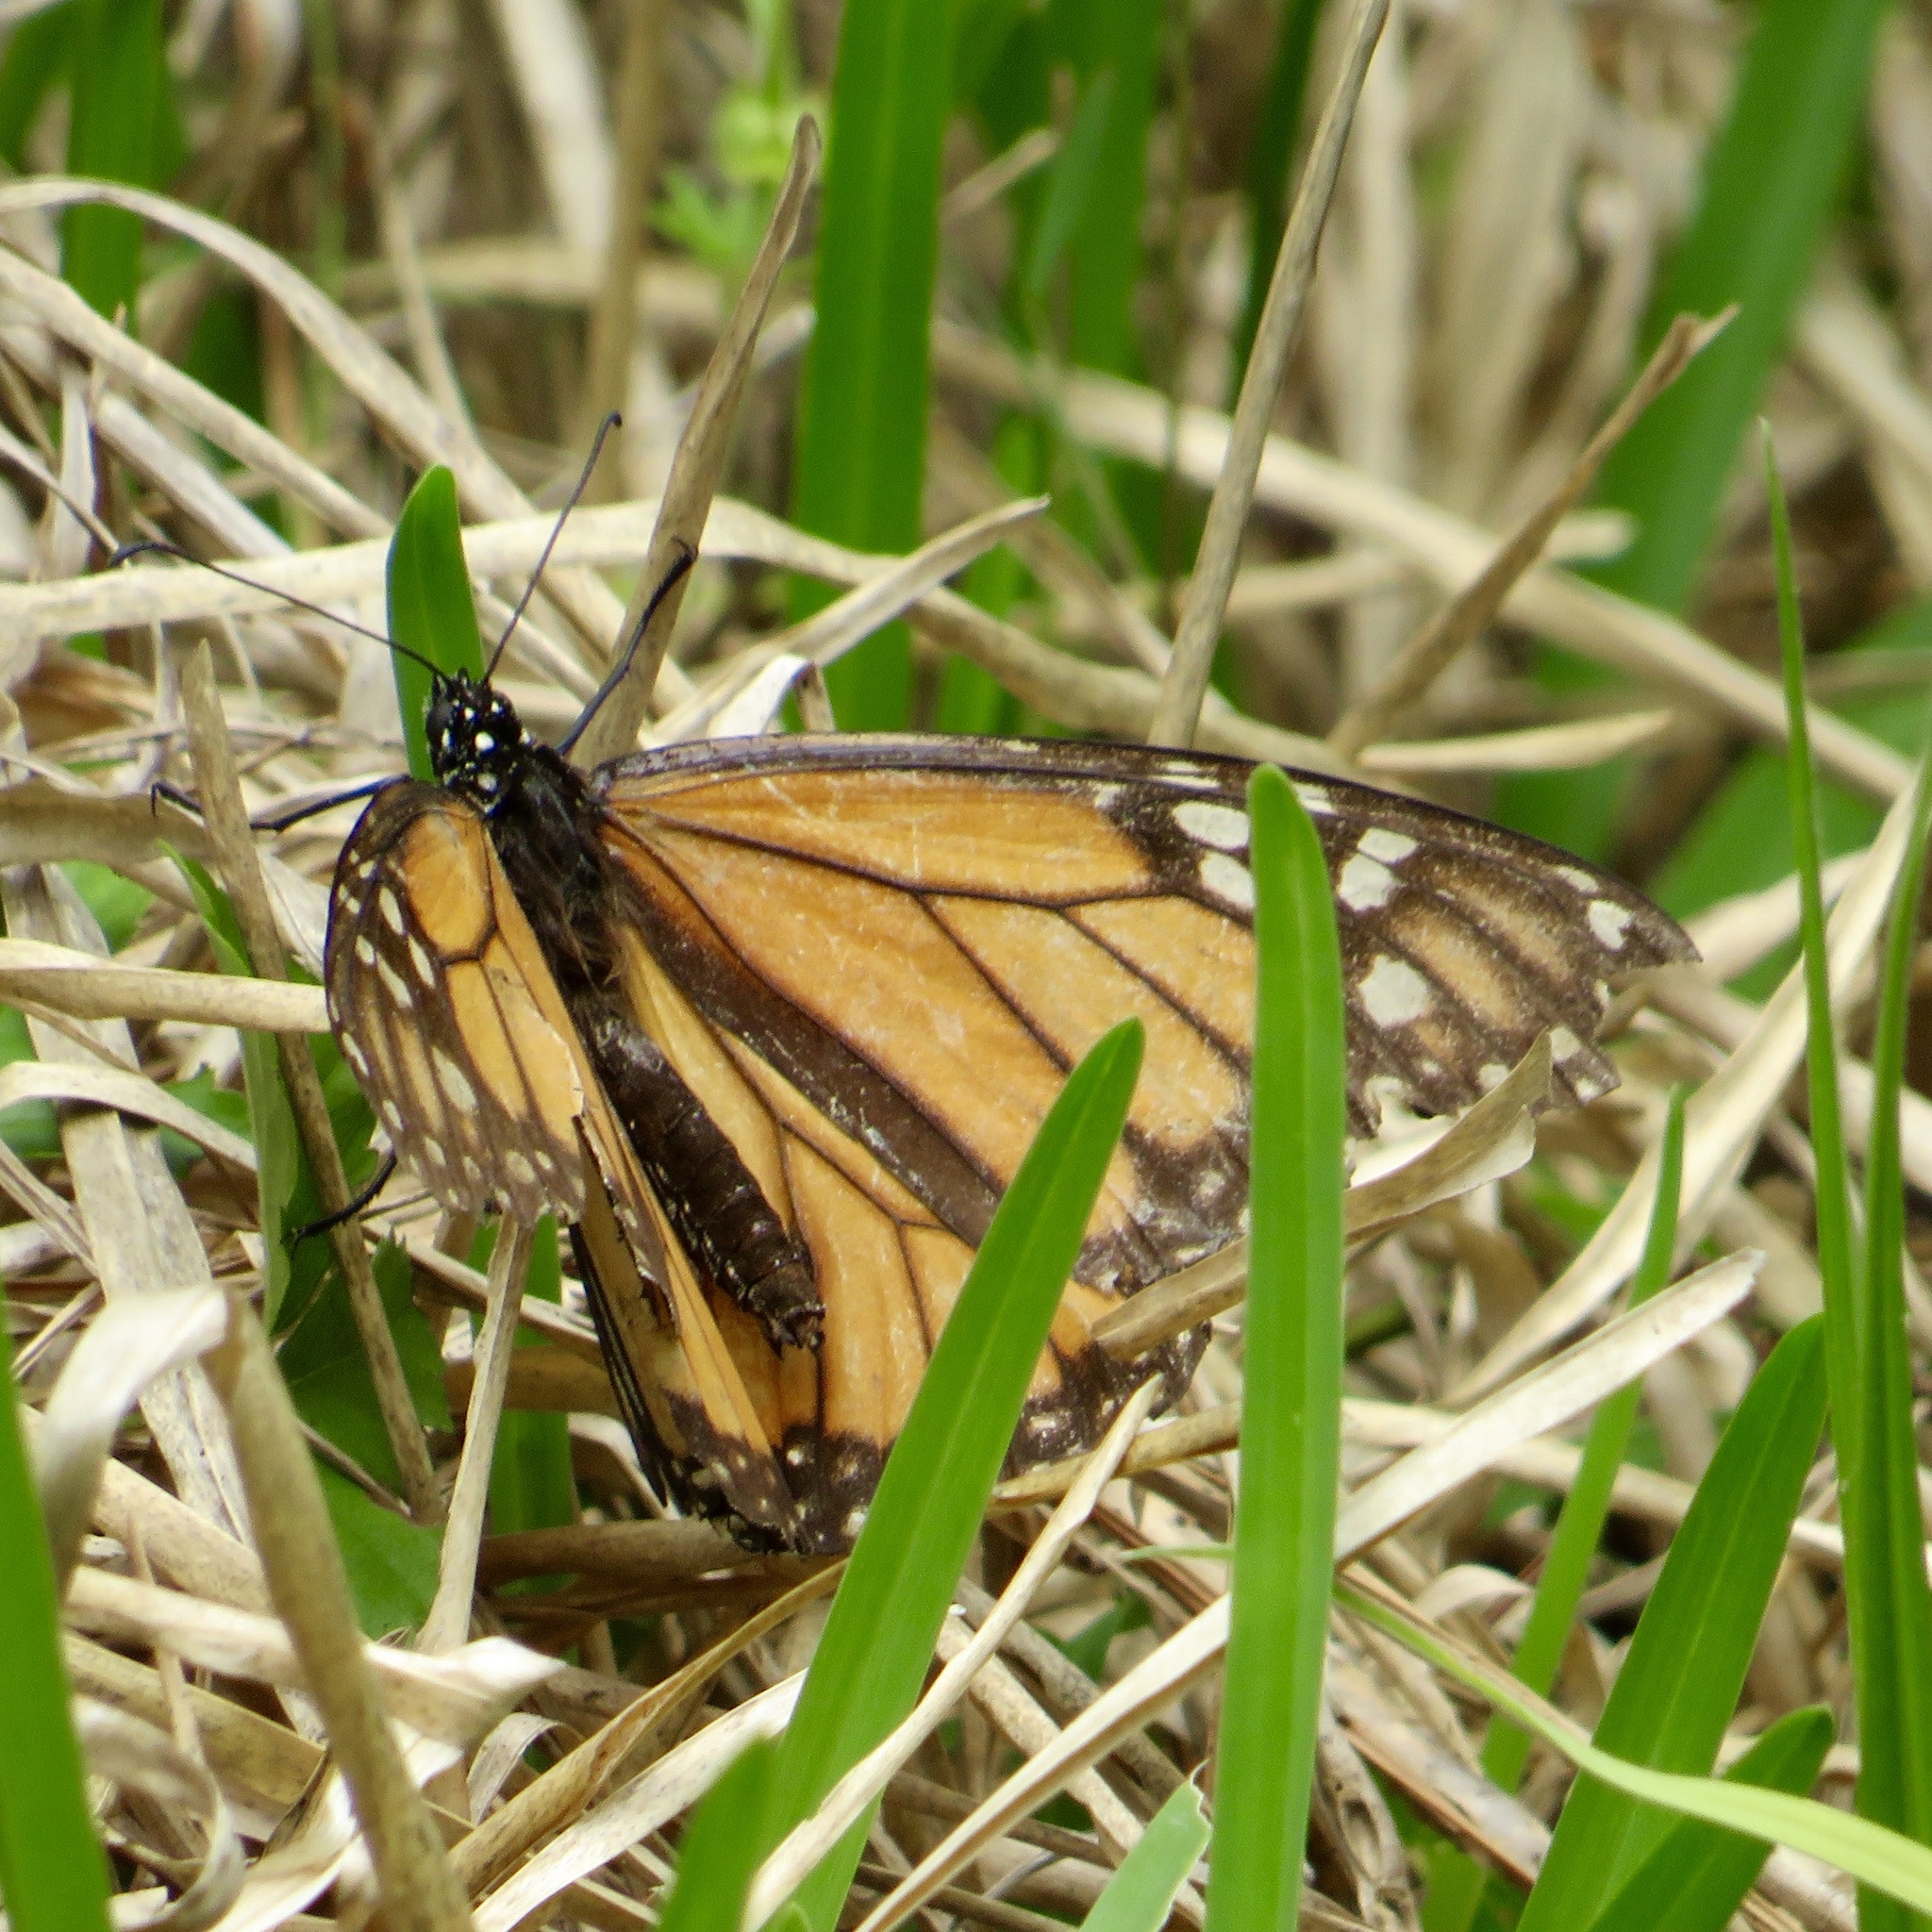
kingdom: Animalia
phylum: Arthropoda
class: Insecta
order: Lepidoptera
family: Nymphalidae
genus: Danaus
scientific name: Danaus plexippus
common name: Monarch
